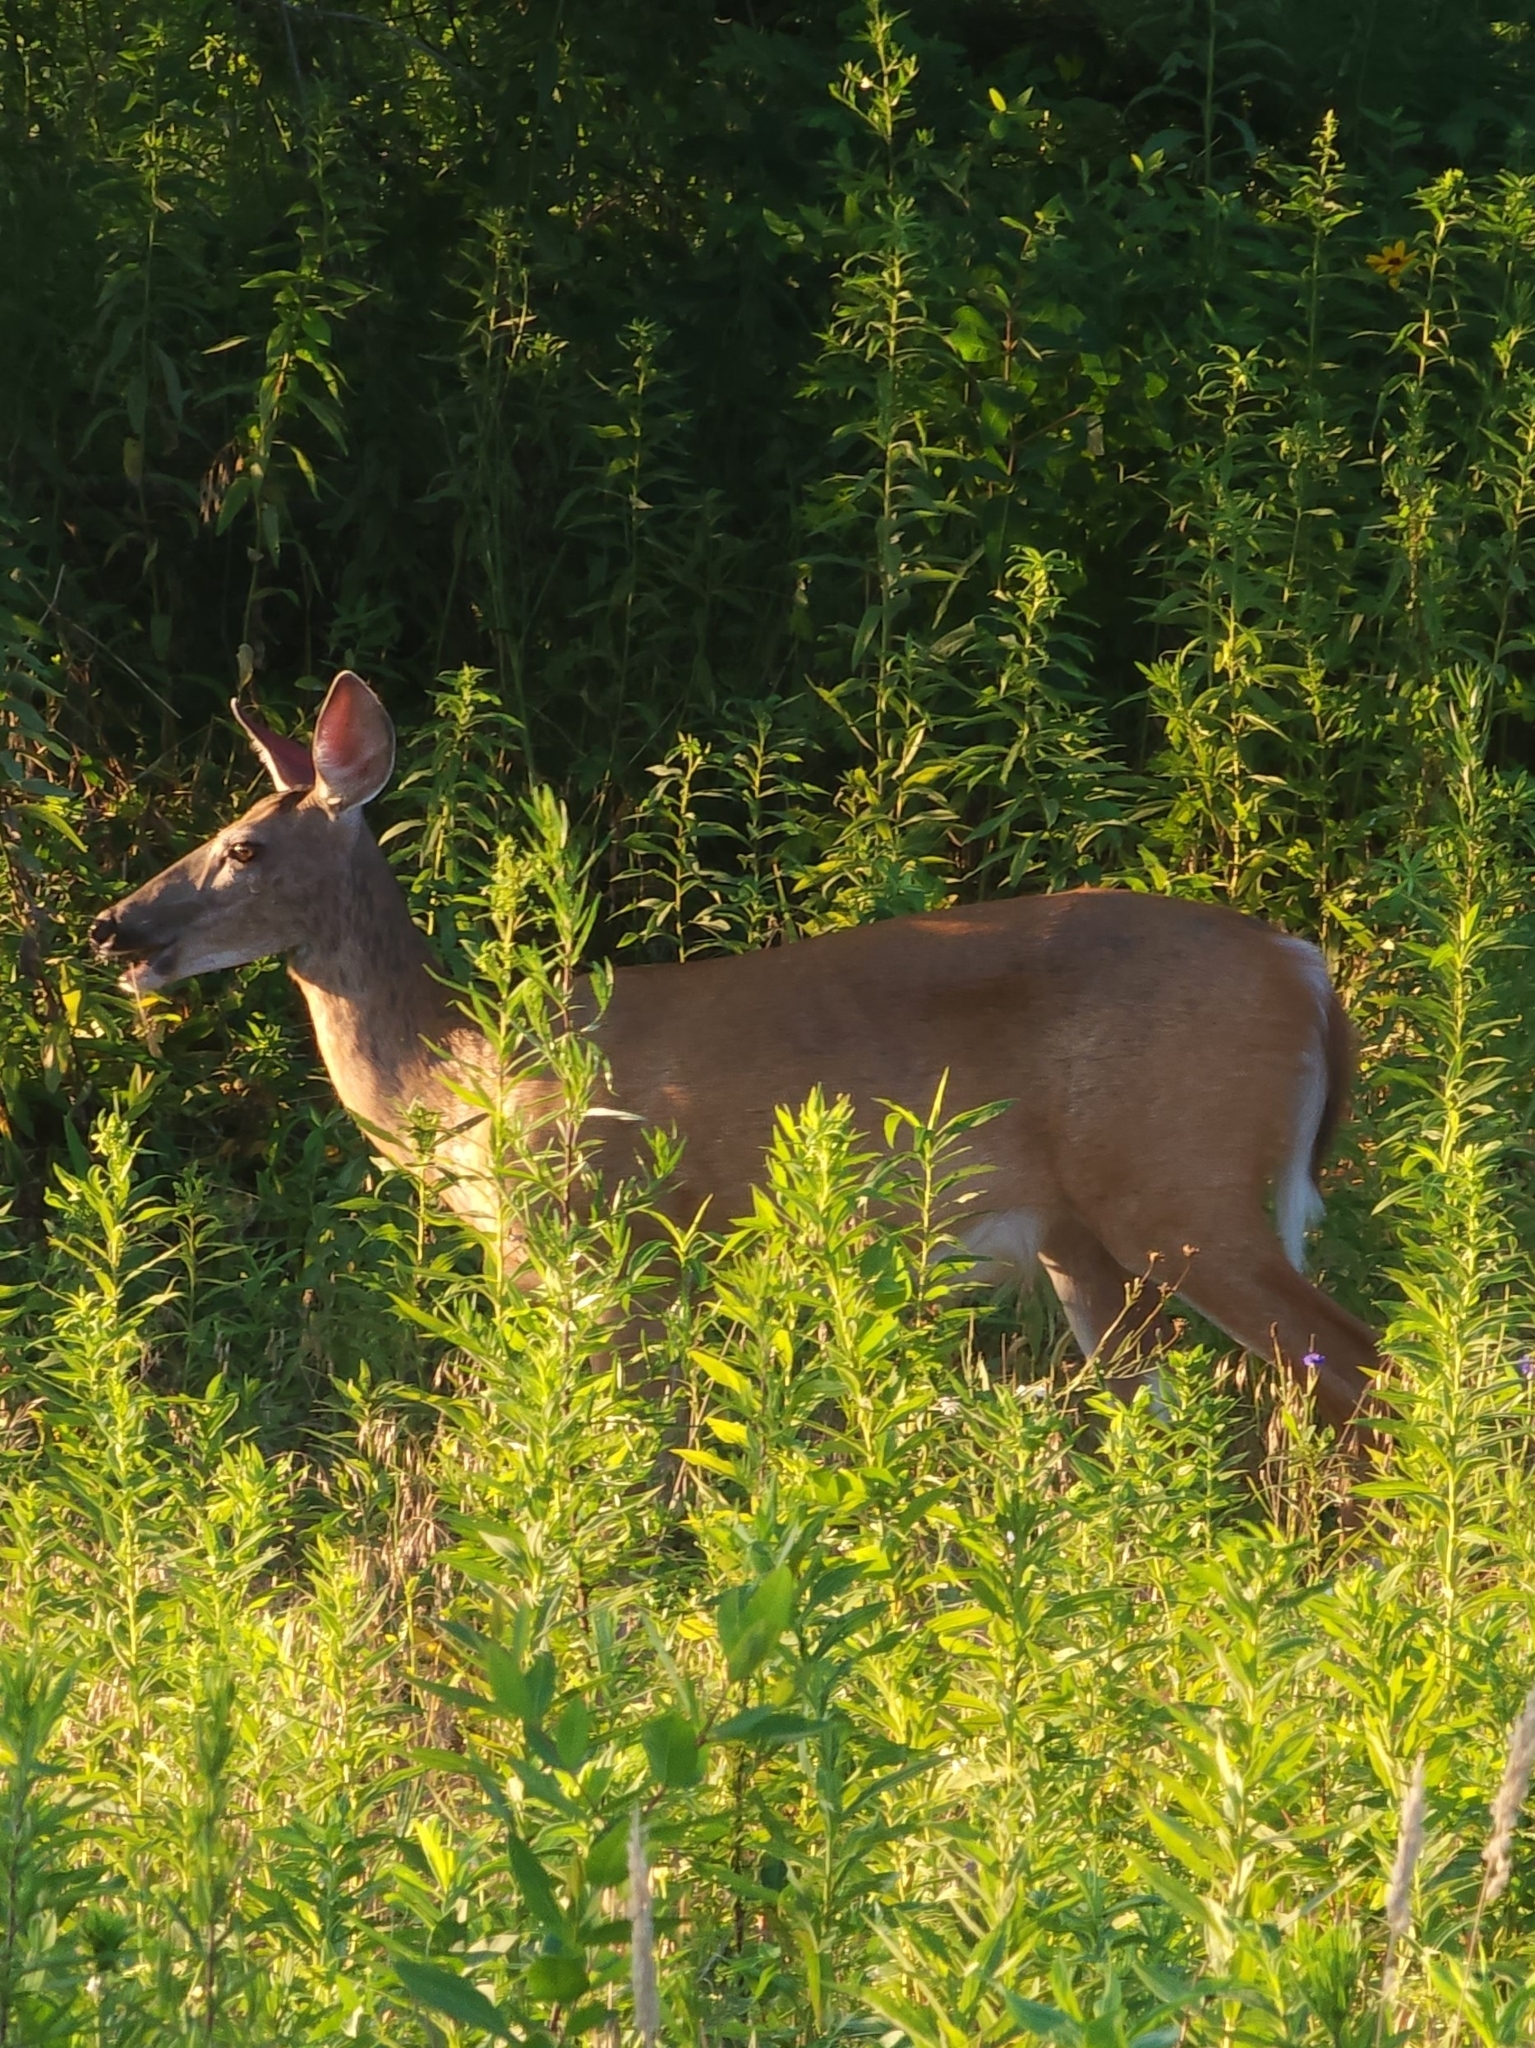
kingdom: Animalia
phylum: Chordata
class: Mammalia
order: Artiodactyla
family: Cervidae
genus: Odocoileus
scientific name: Odocoileus virginianus
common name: White-tailed deer
